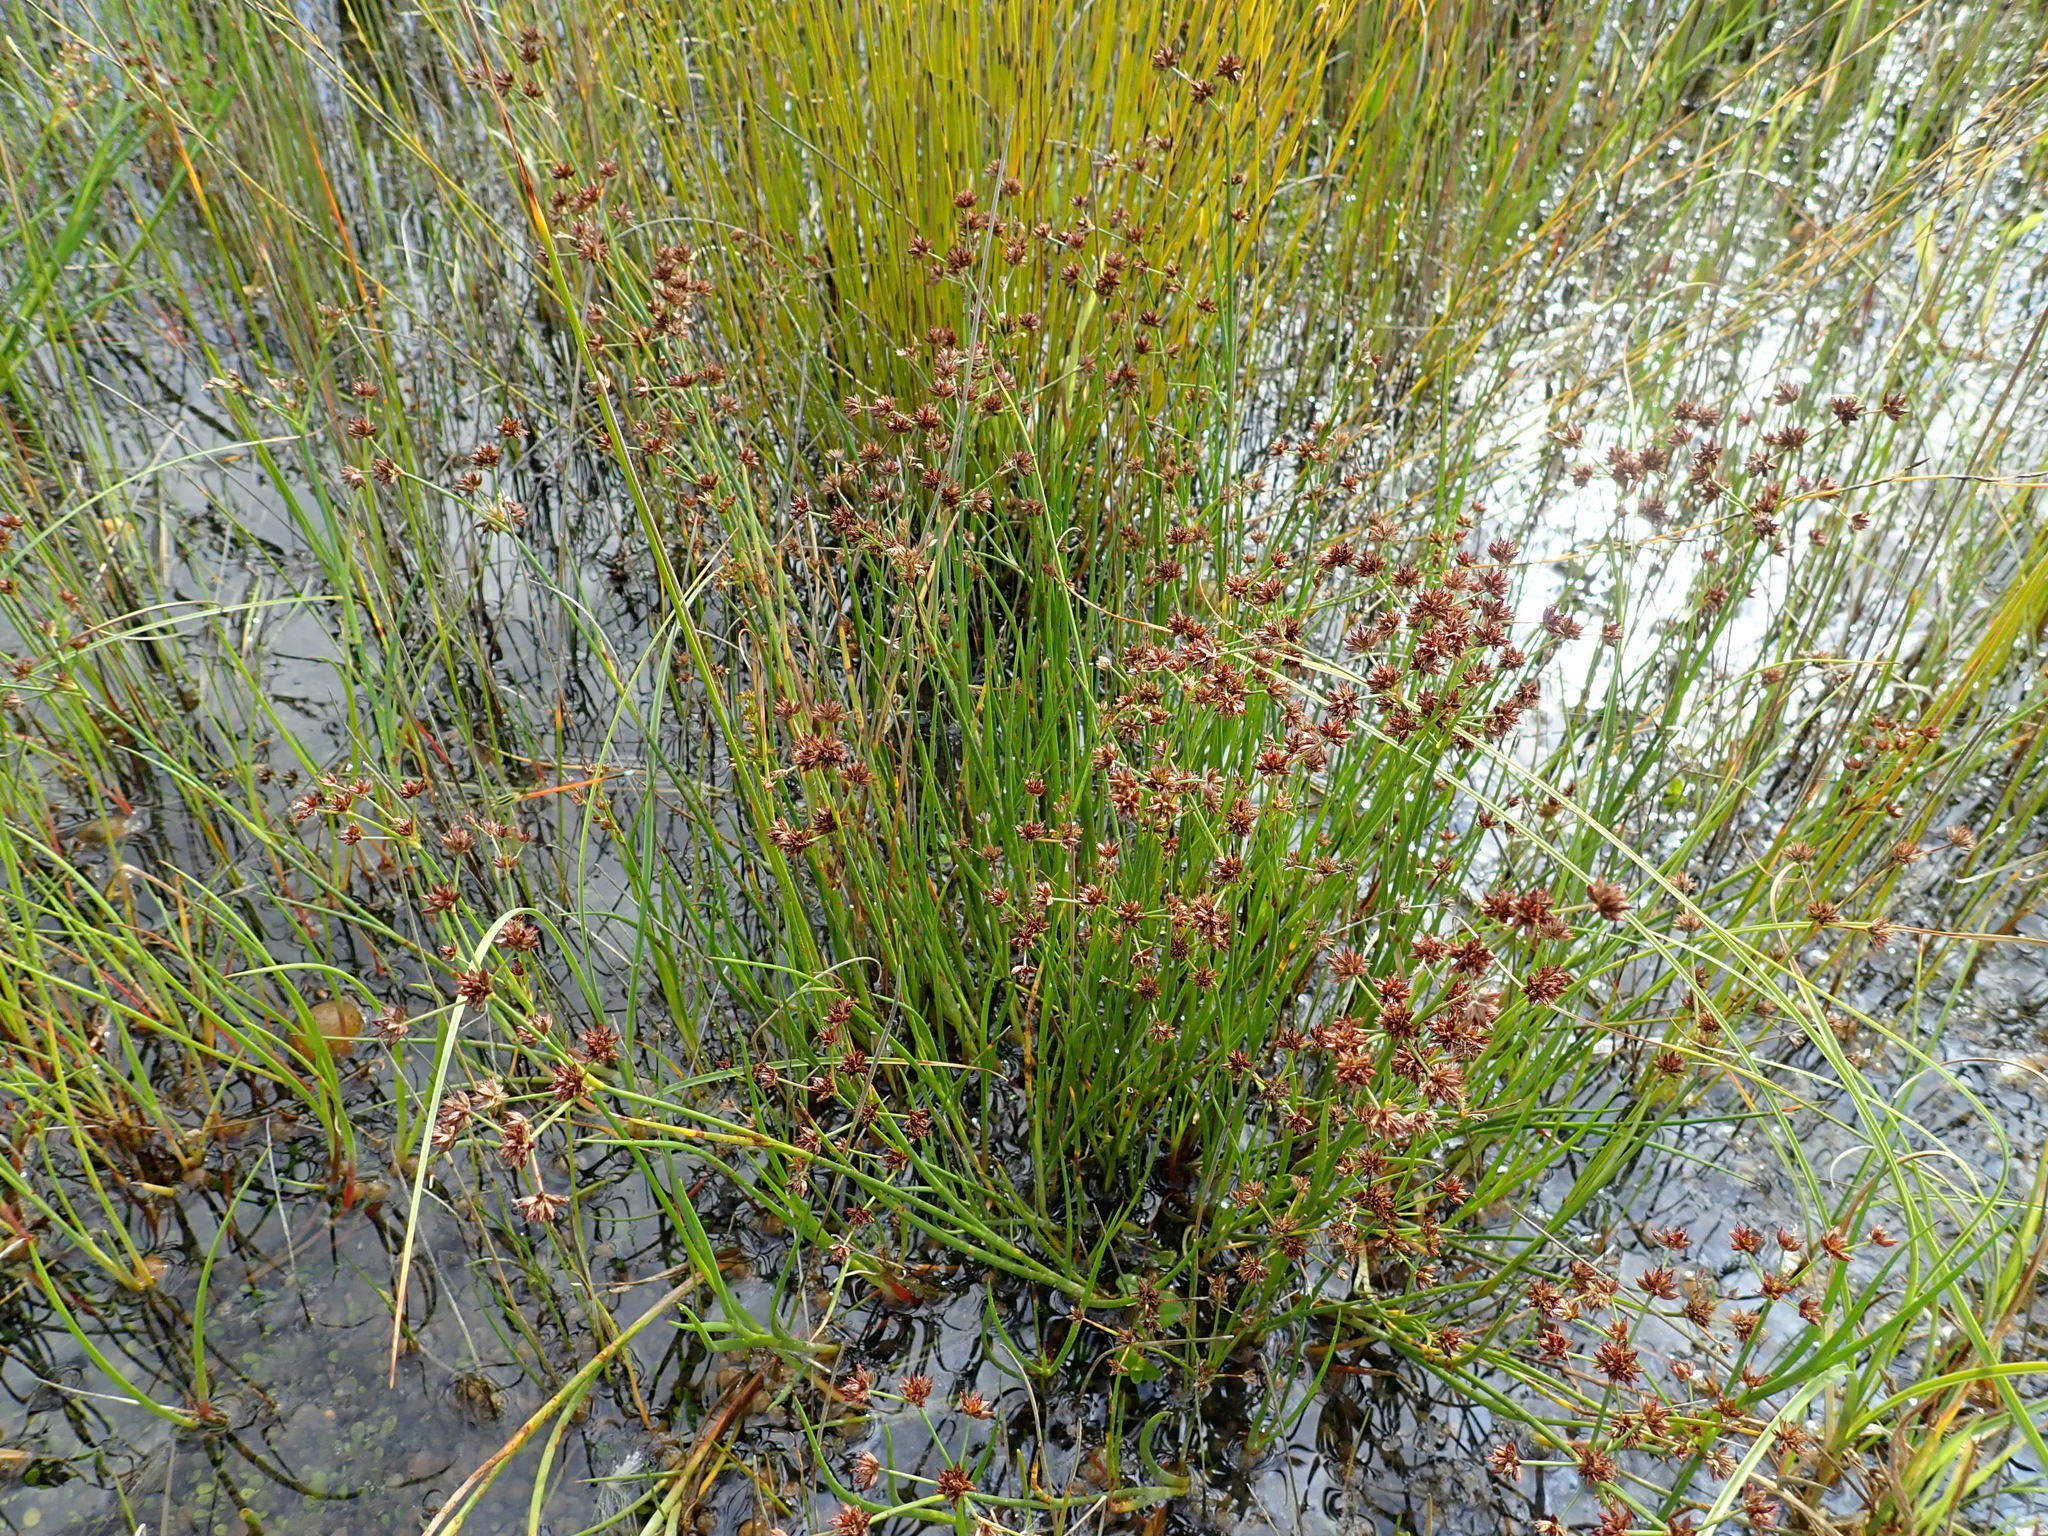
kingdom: Plantae
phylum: Tracheophyta
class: Liliopsida
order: Poales
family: Juncaceae
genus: Juncus
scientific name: Juncus articulatus
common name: Jointed rush
